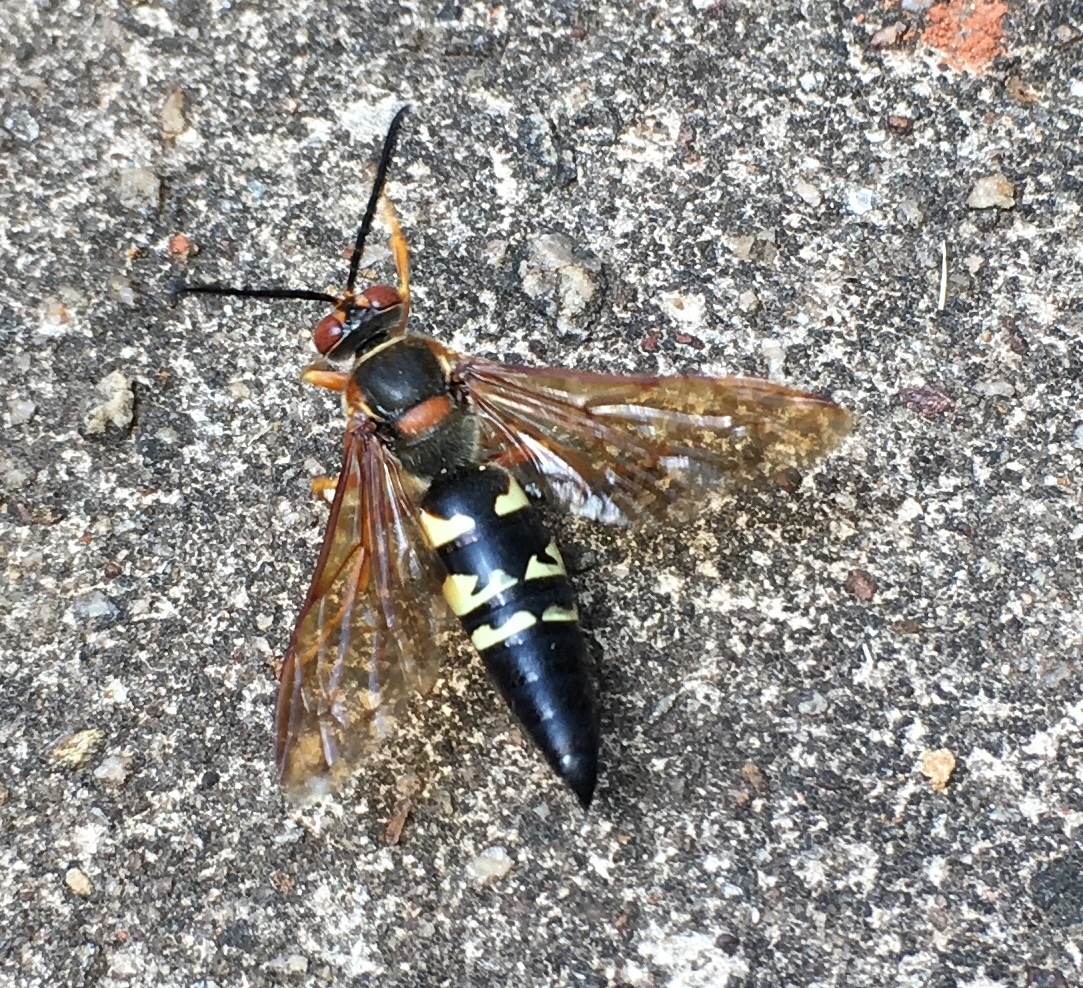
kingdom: Animalia
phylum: Arthropoda
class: Insecta
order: Hymenoptera
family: Crabronidae
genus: Sphecius
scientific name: Sphecius speciosus
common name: Cicada killer
